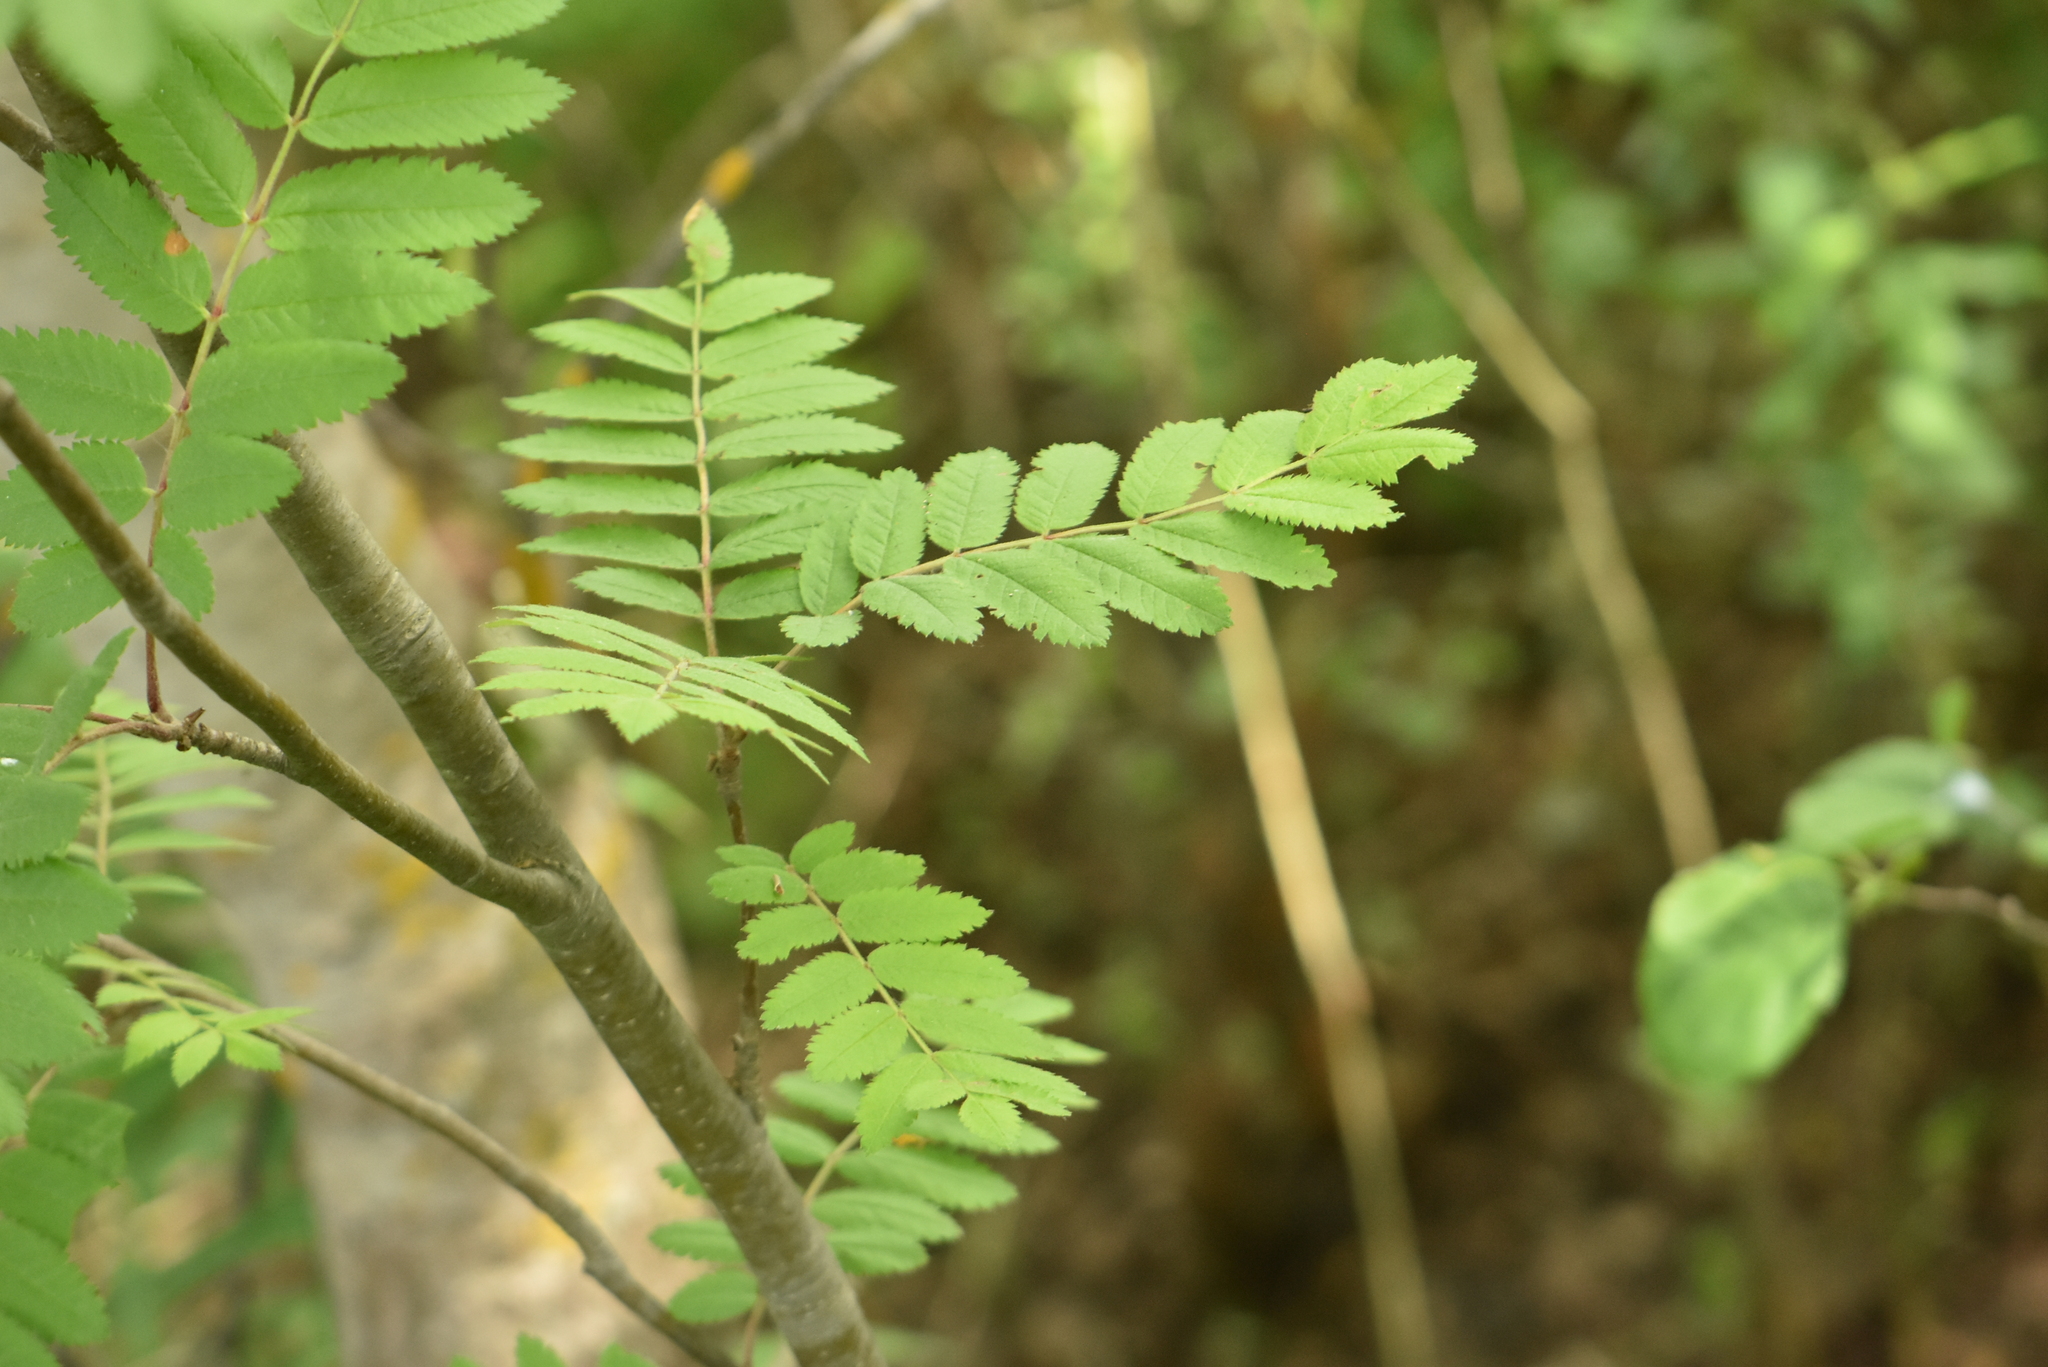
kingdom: Plantae
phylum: Tracheophyta
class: Magnoliopsida
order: Rosales
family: Rosaceae
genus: Sorbus
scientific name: Sorbus aucuparia
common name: Rowan
